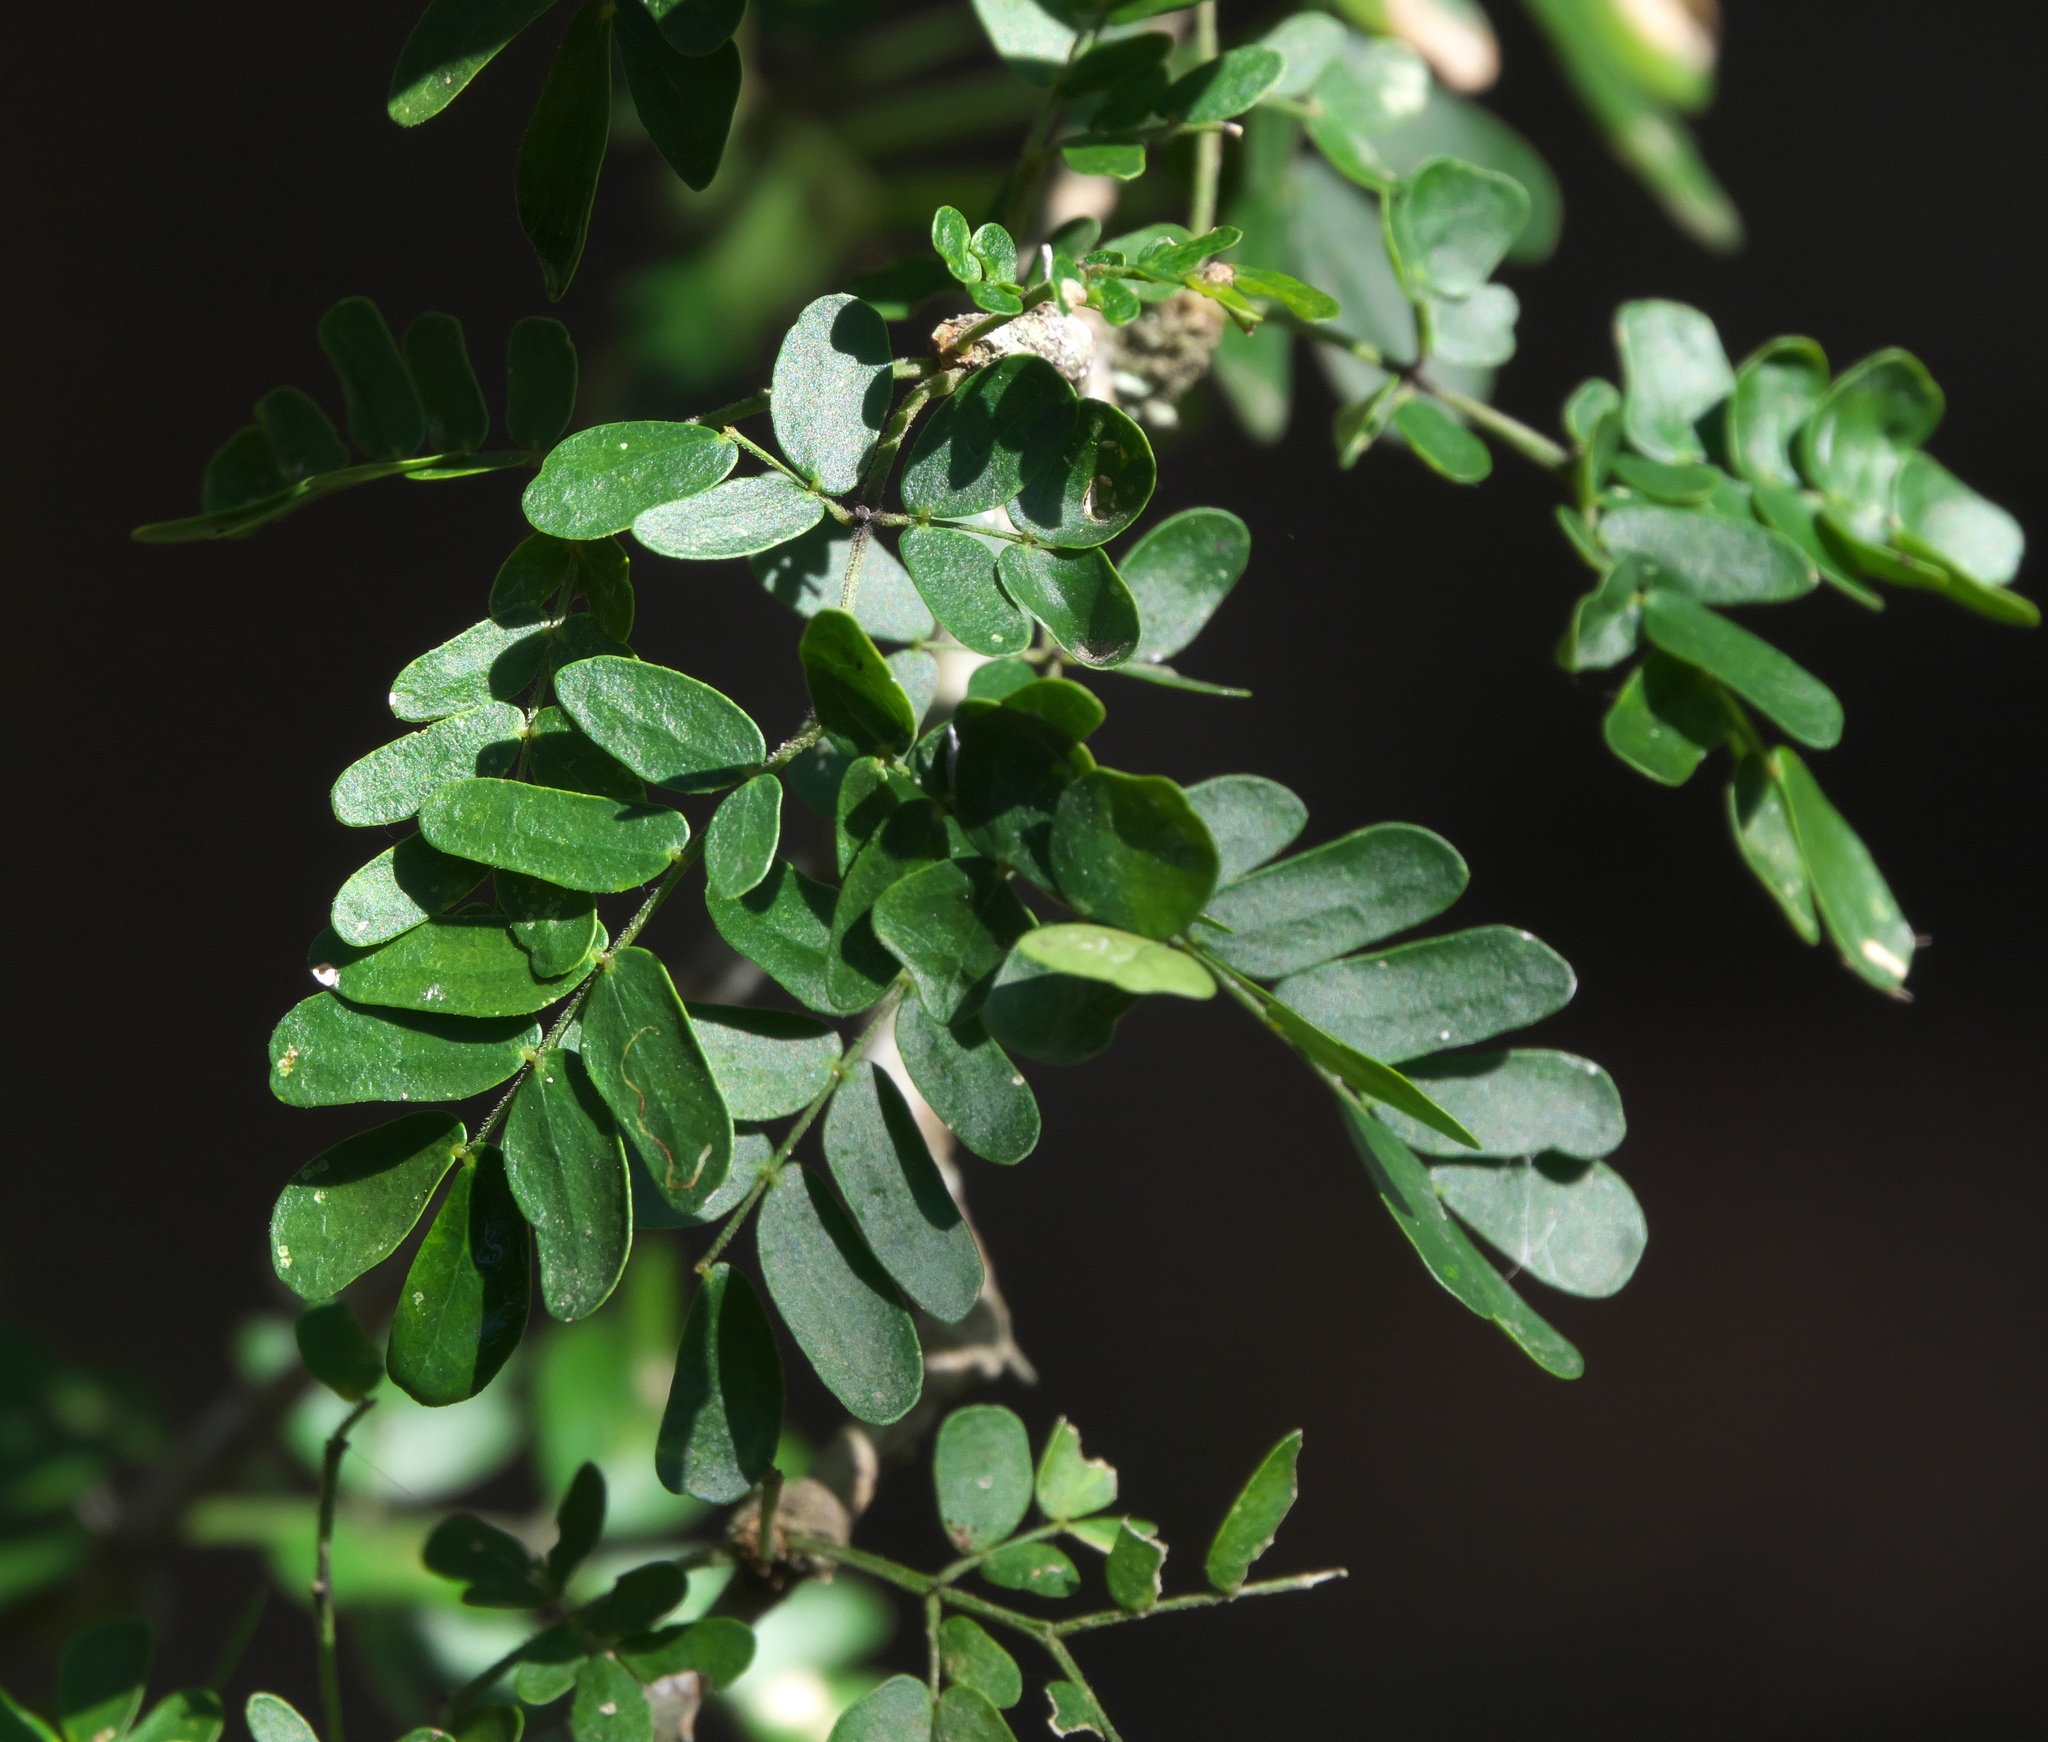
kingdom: Plantae
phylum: Tracheophyta
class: Magnoliopsida
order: Fabales
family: Fabaceae
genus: Ebenopsis
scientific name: Ebenopsis ebano
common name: Ebony blackbead
